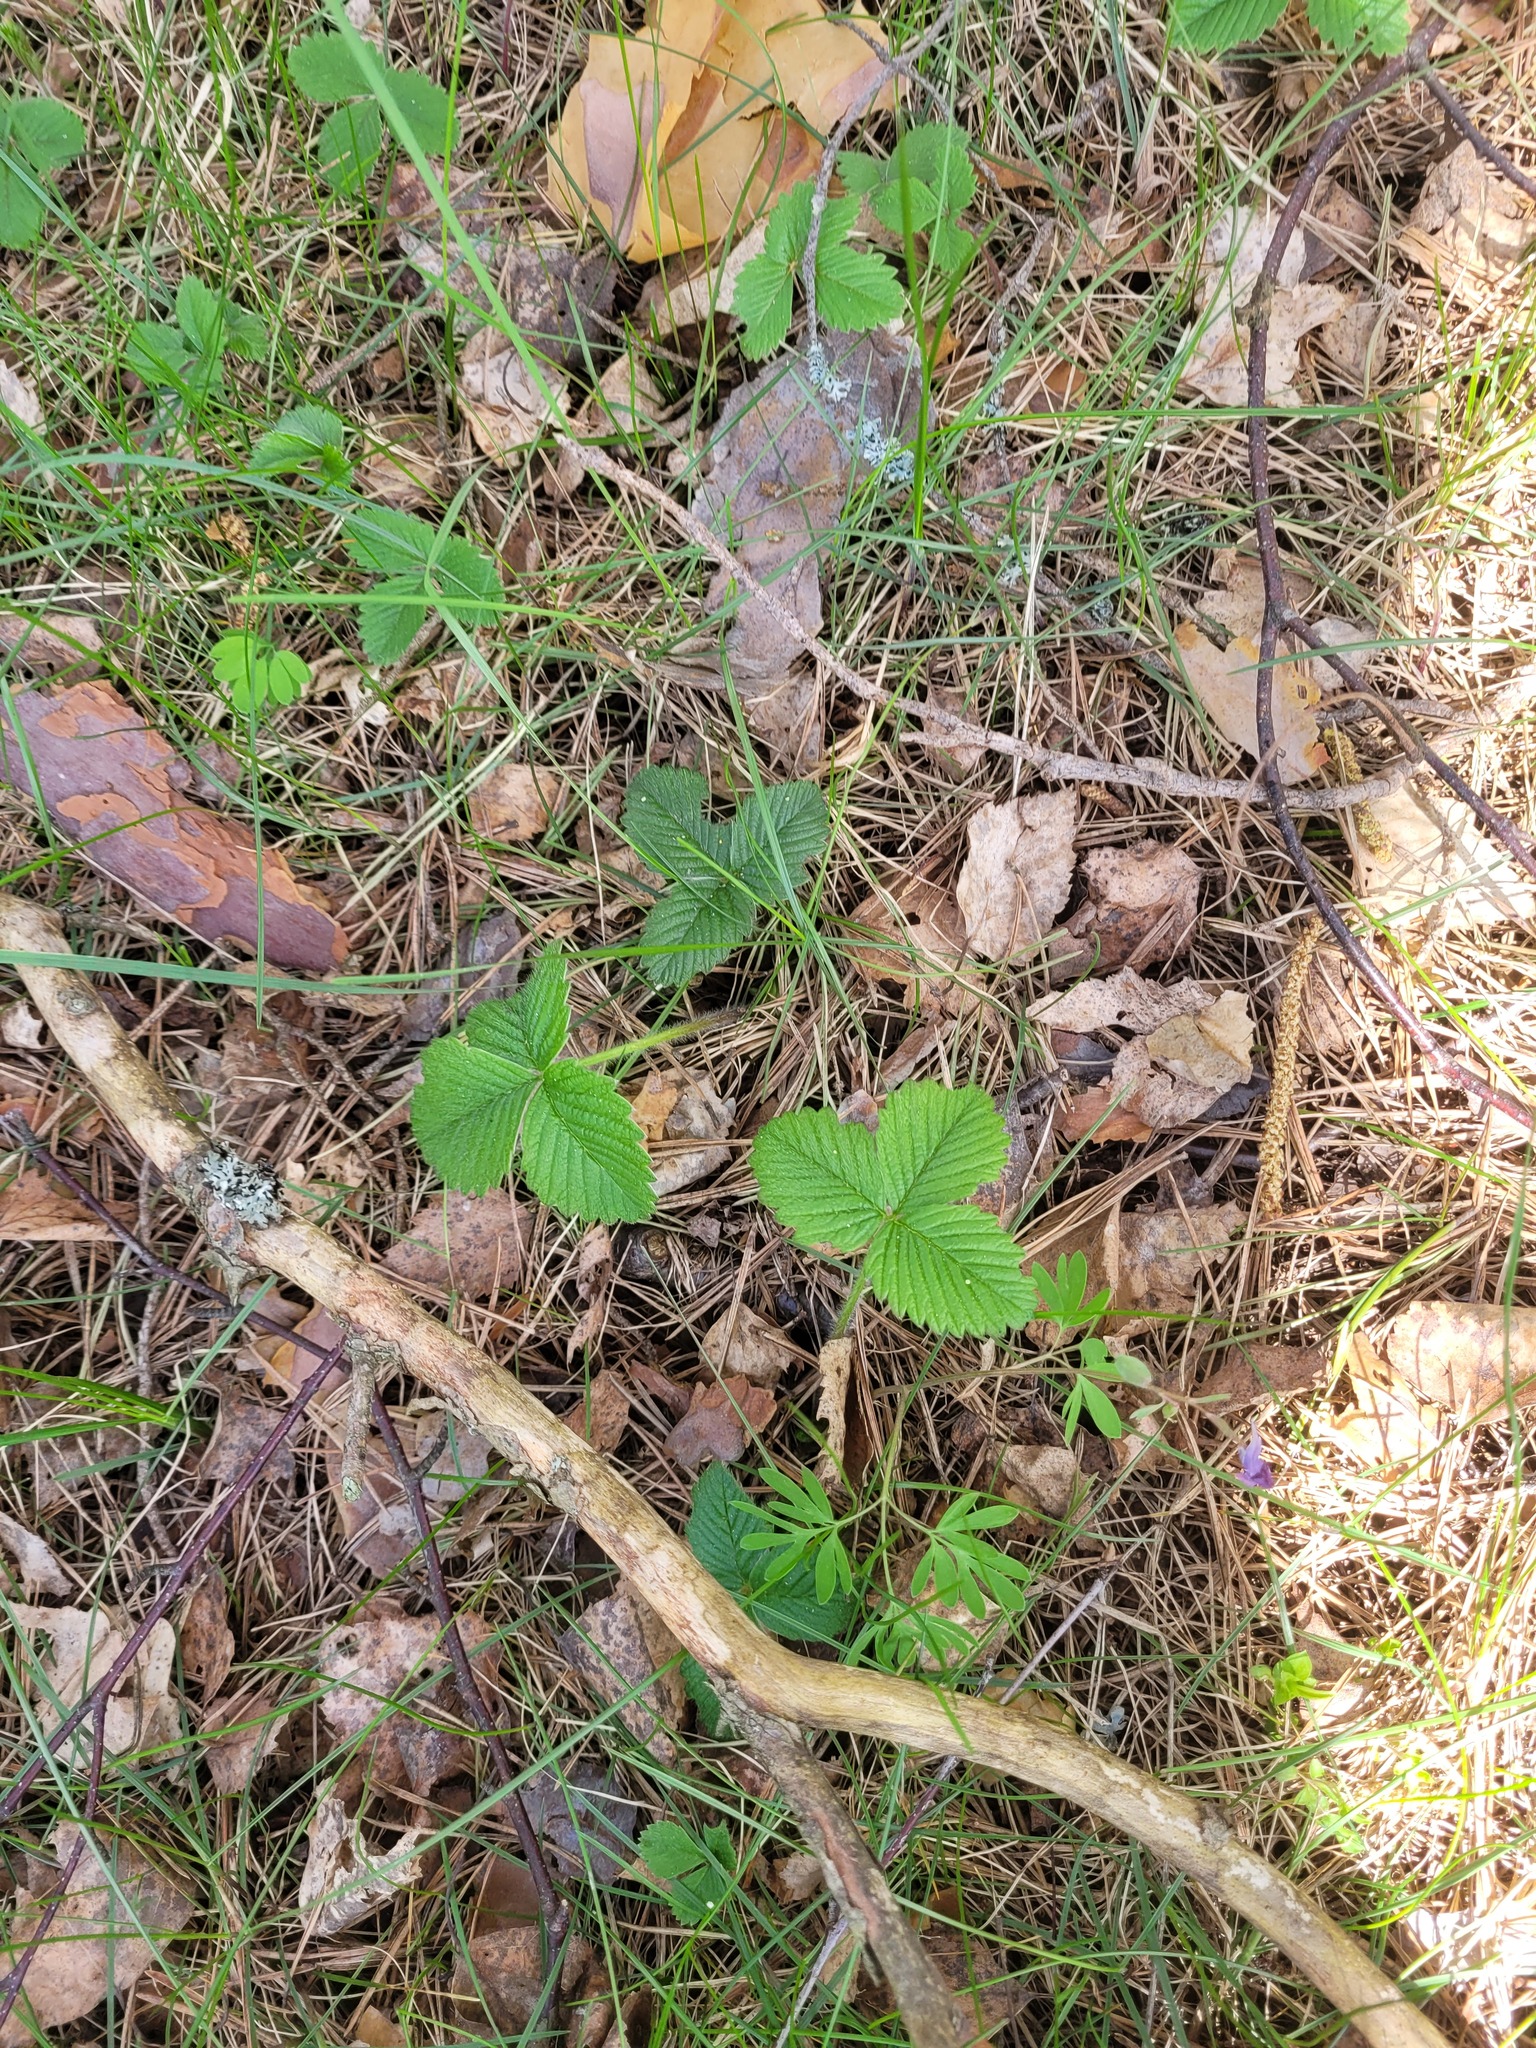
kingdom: Plantae
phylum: Tracheophyta
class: Magnoliopsida
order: Rosales
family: Rosaceae
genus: Fragaria
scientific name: Fragaria moschata
